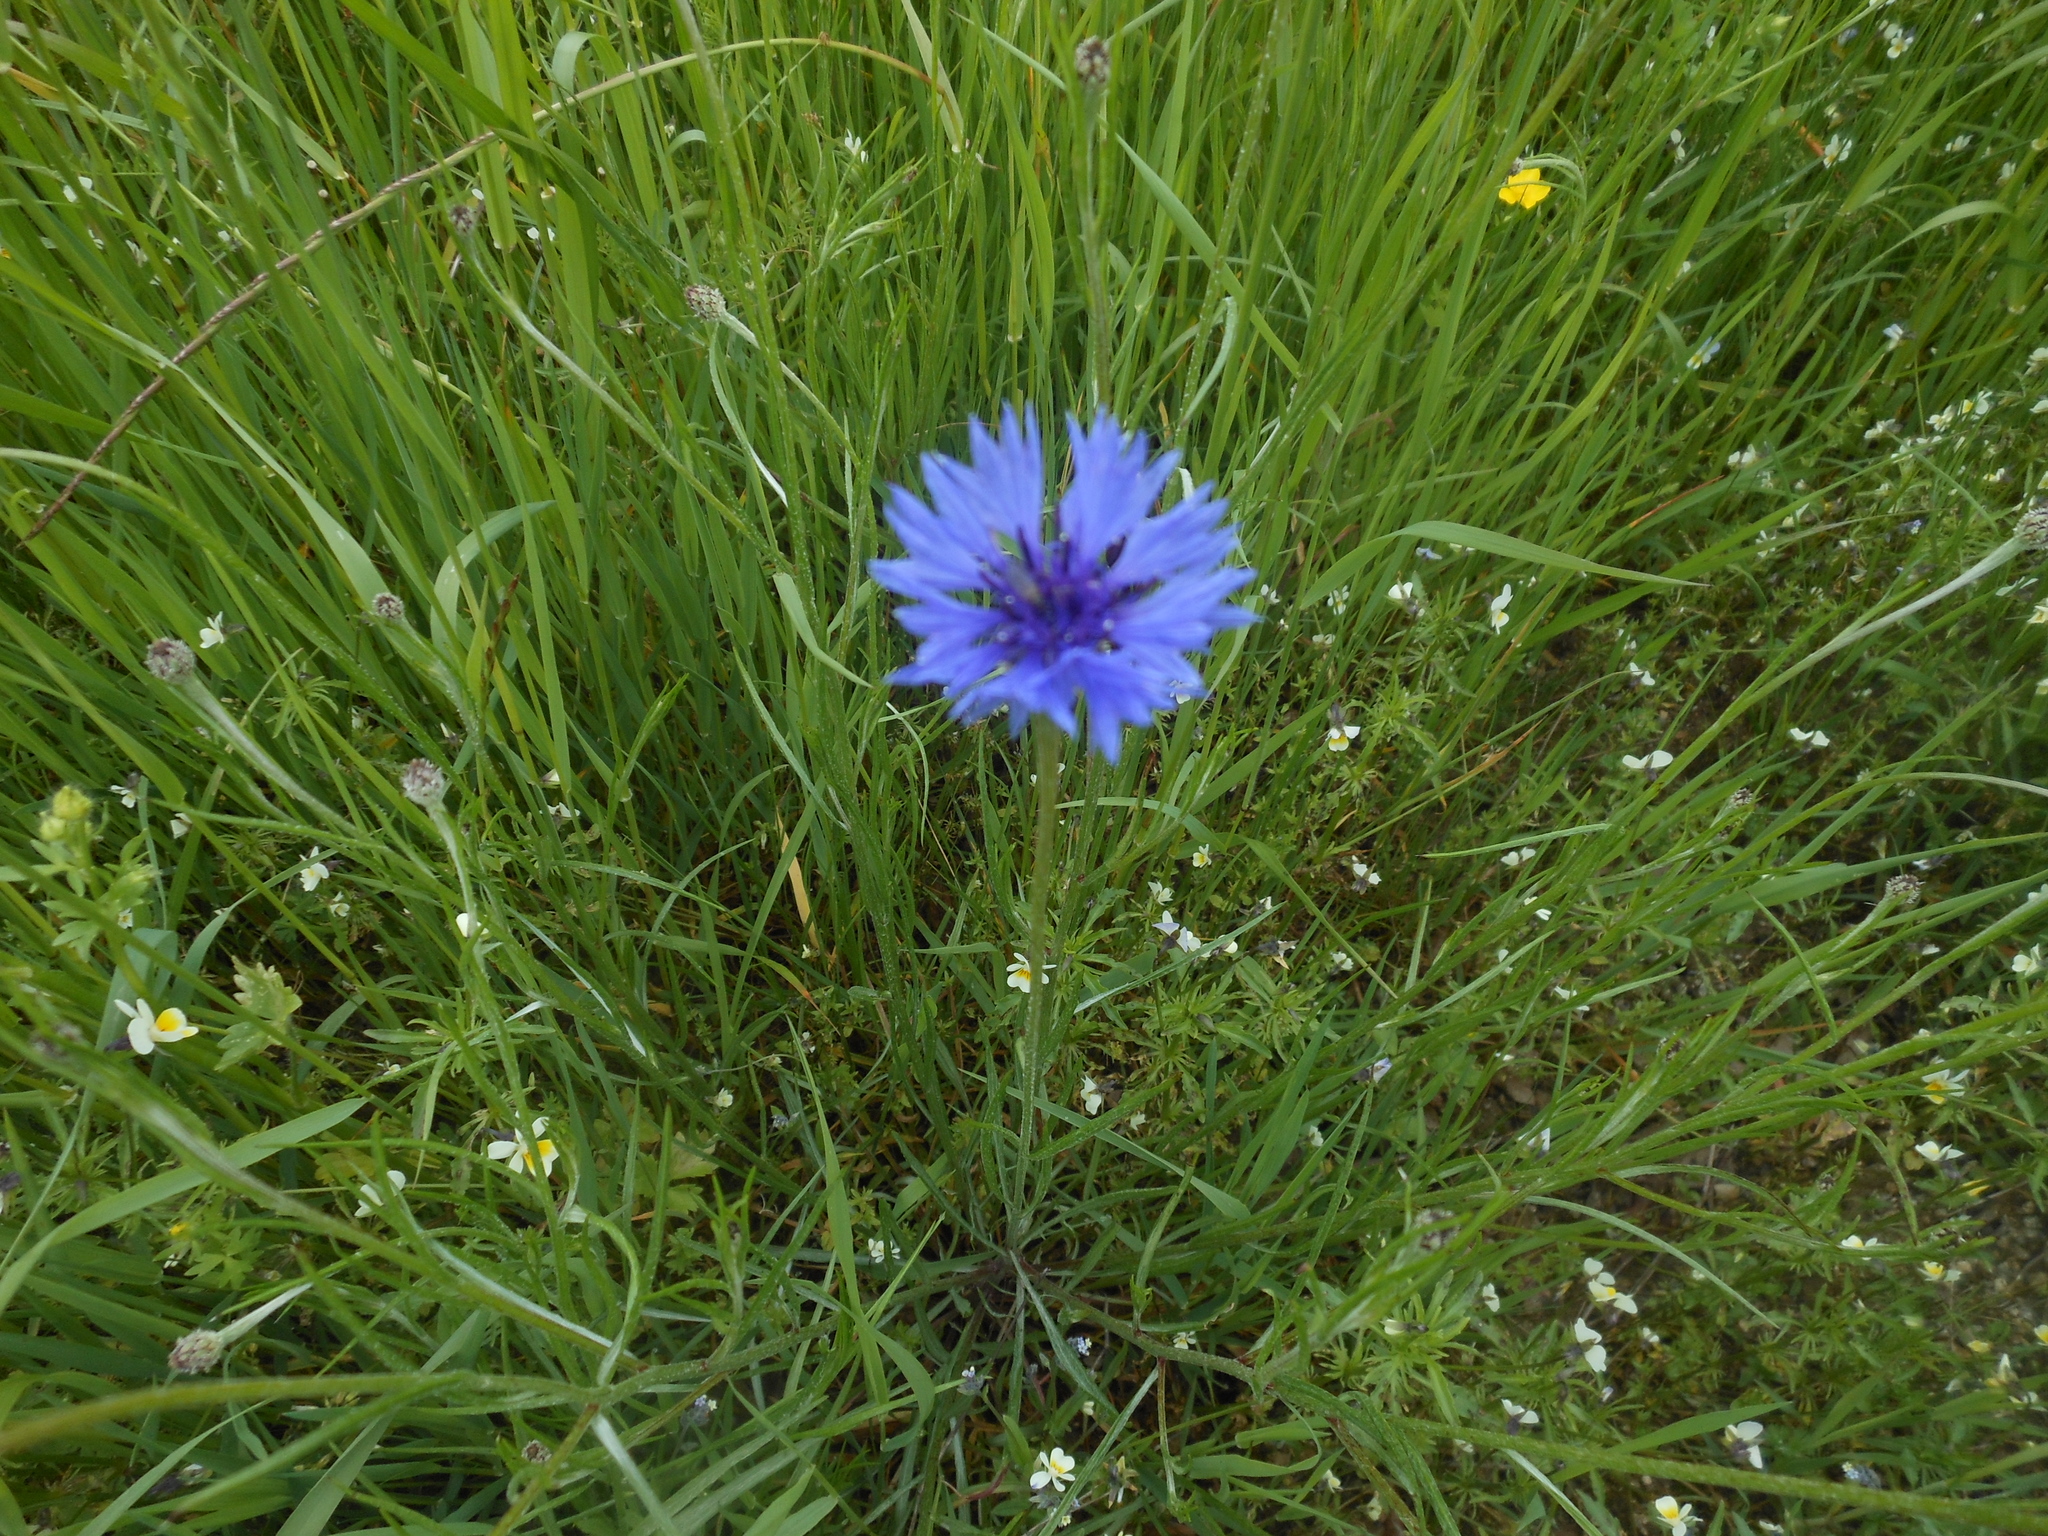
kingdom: Plantae
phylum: Tracheophyta
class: Magnoliopsida
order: Asterales
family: Asteraceae
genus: Centaurea
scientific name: Centaurea cyanus
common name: Cornflower
